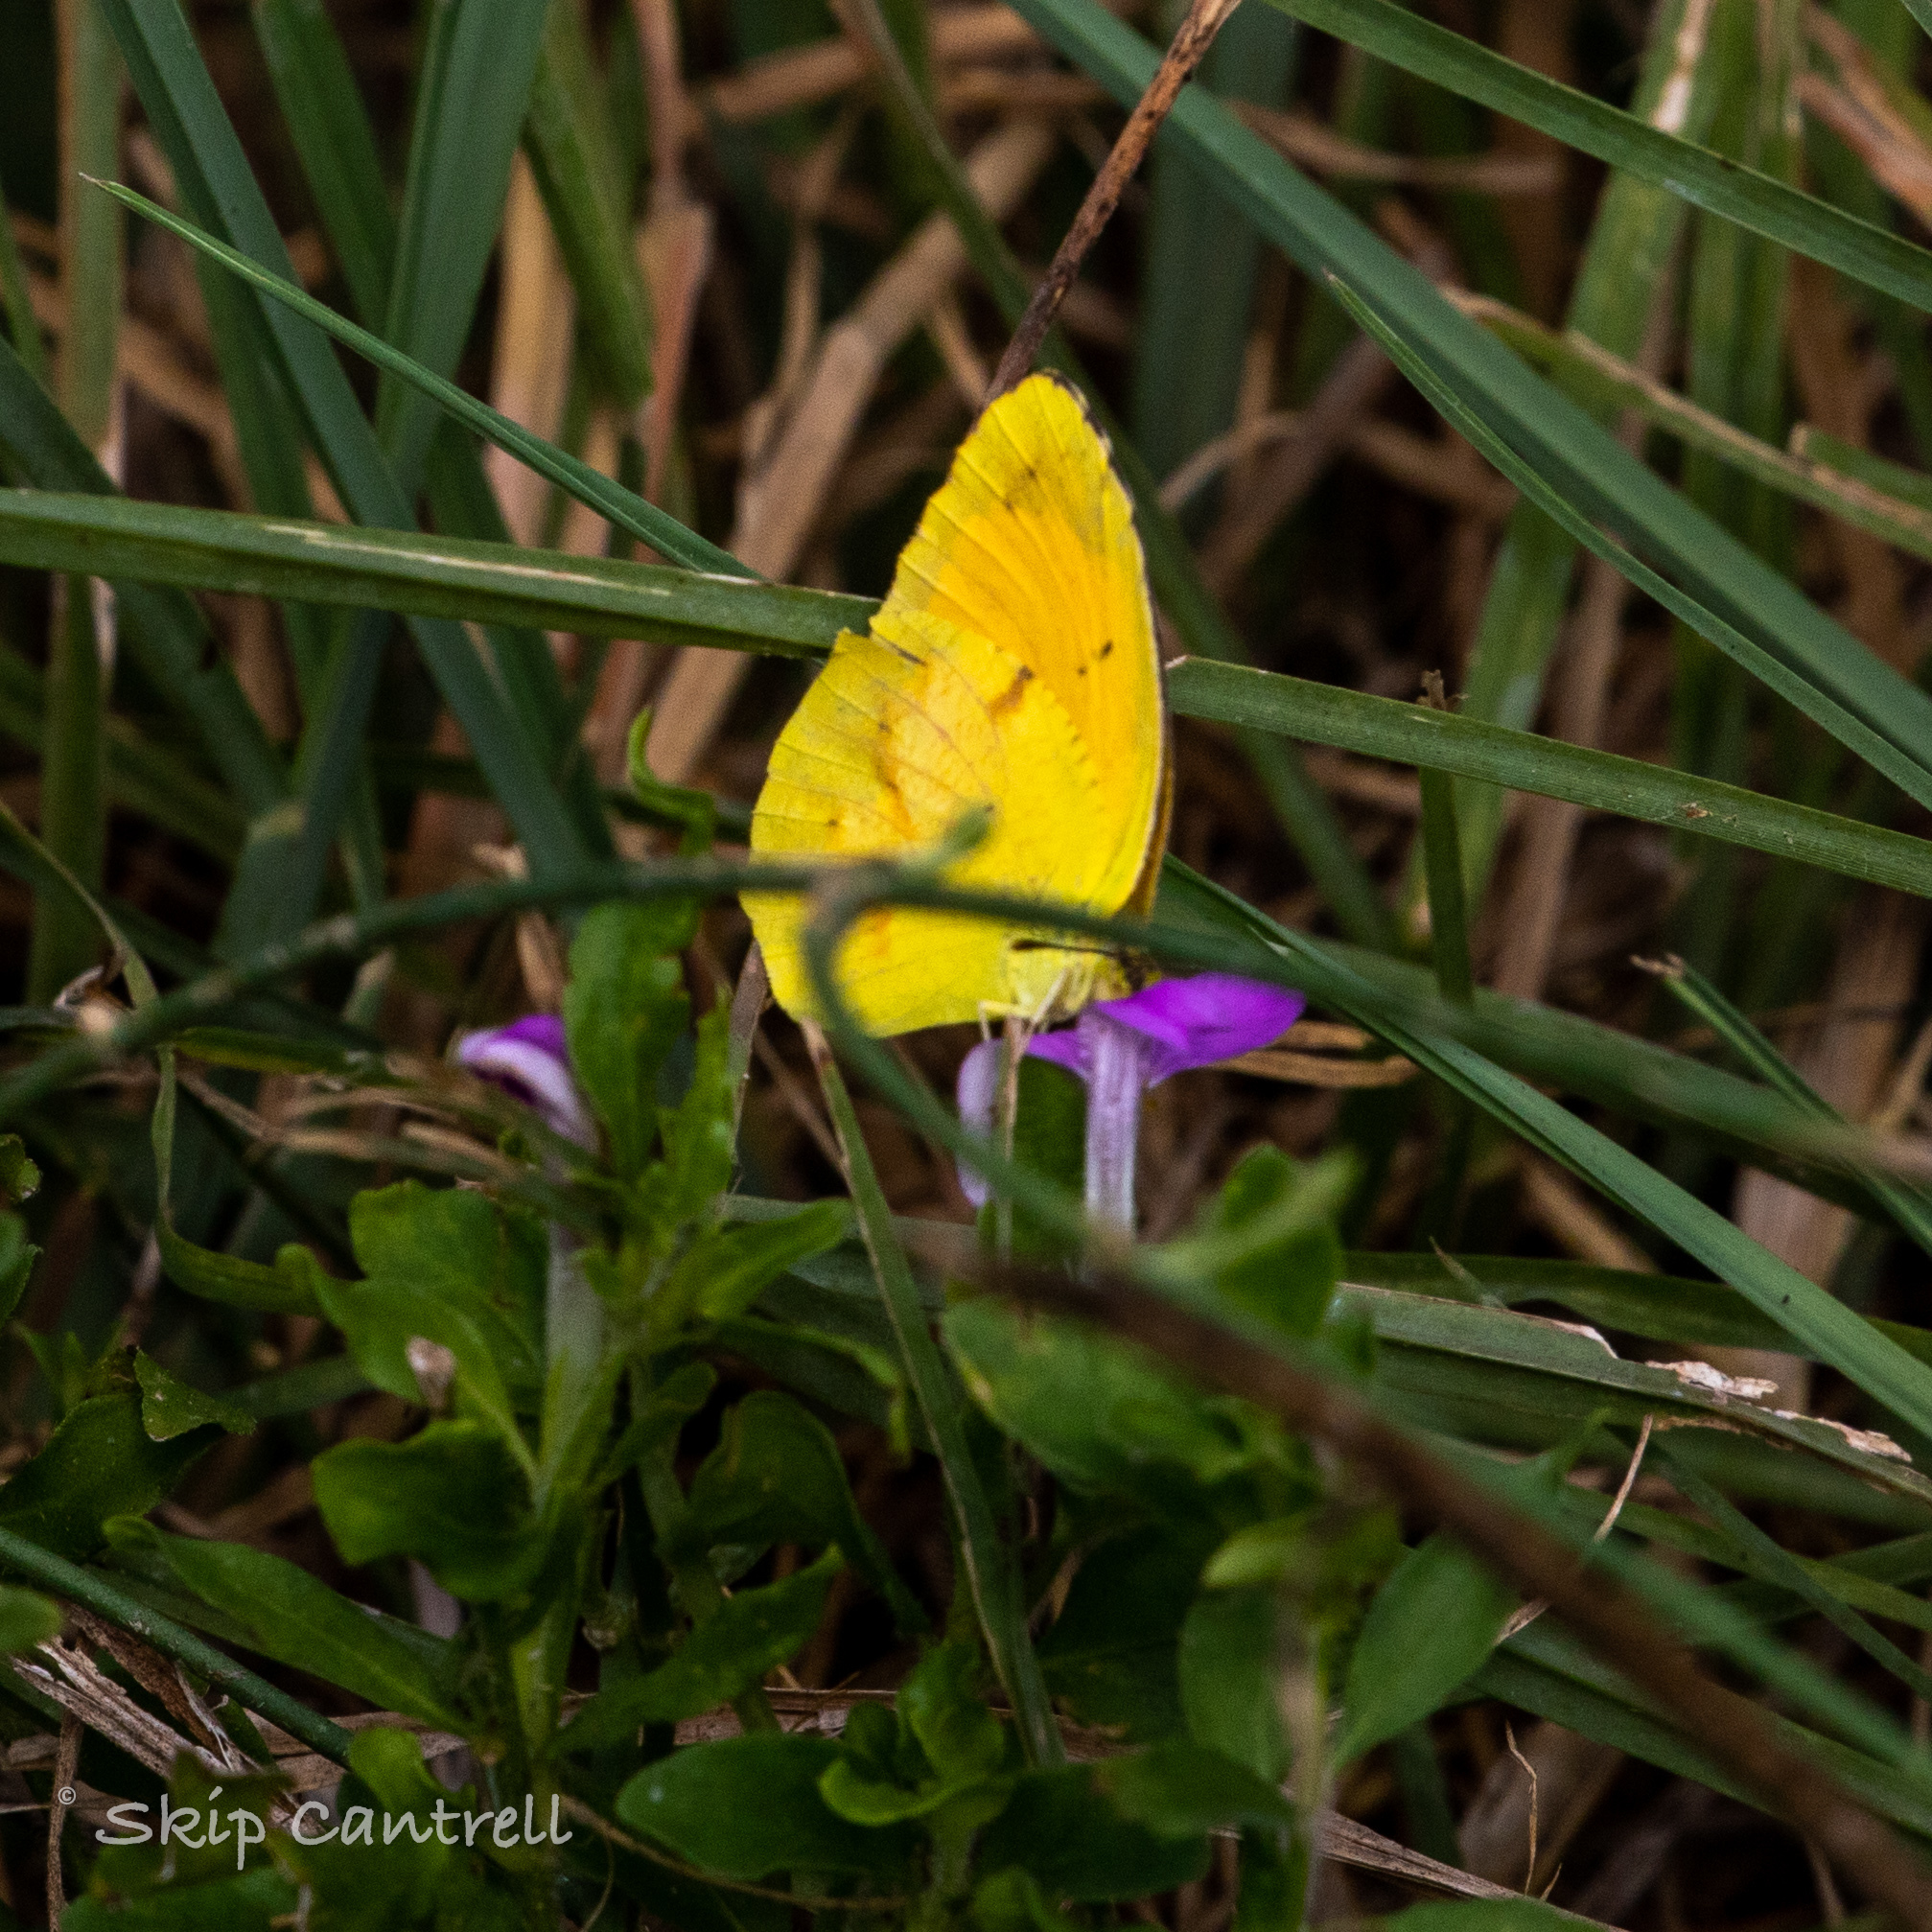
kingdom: Animalia
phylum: Arthropoda
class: Insecta
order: Lepidoptera
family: Pieridae
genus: Abaeis
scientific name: Abaeis nicippe
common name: Sleepy orange
